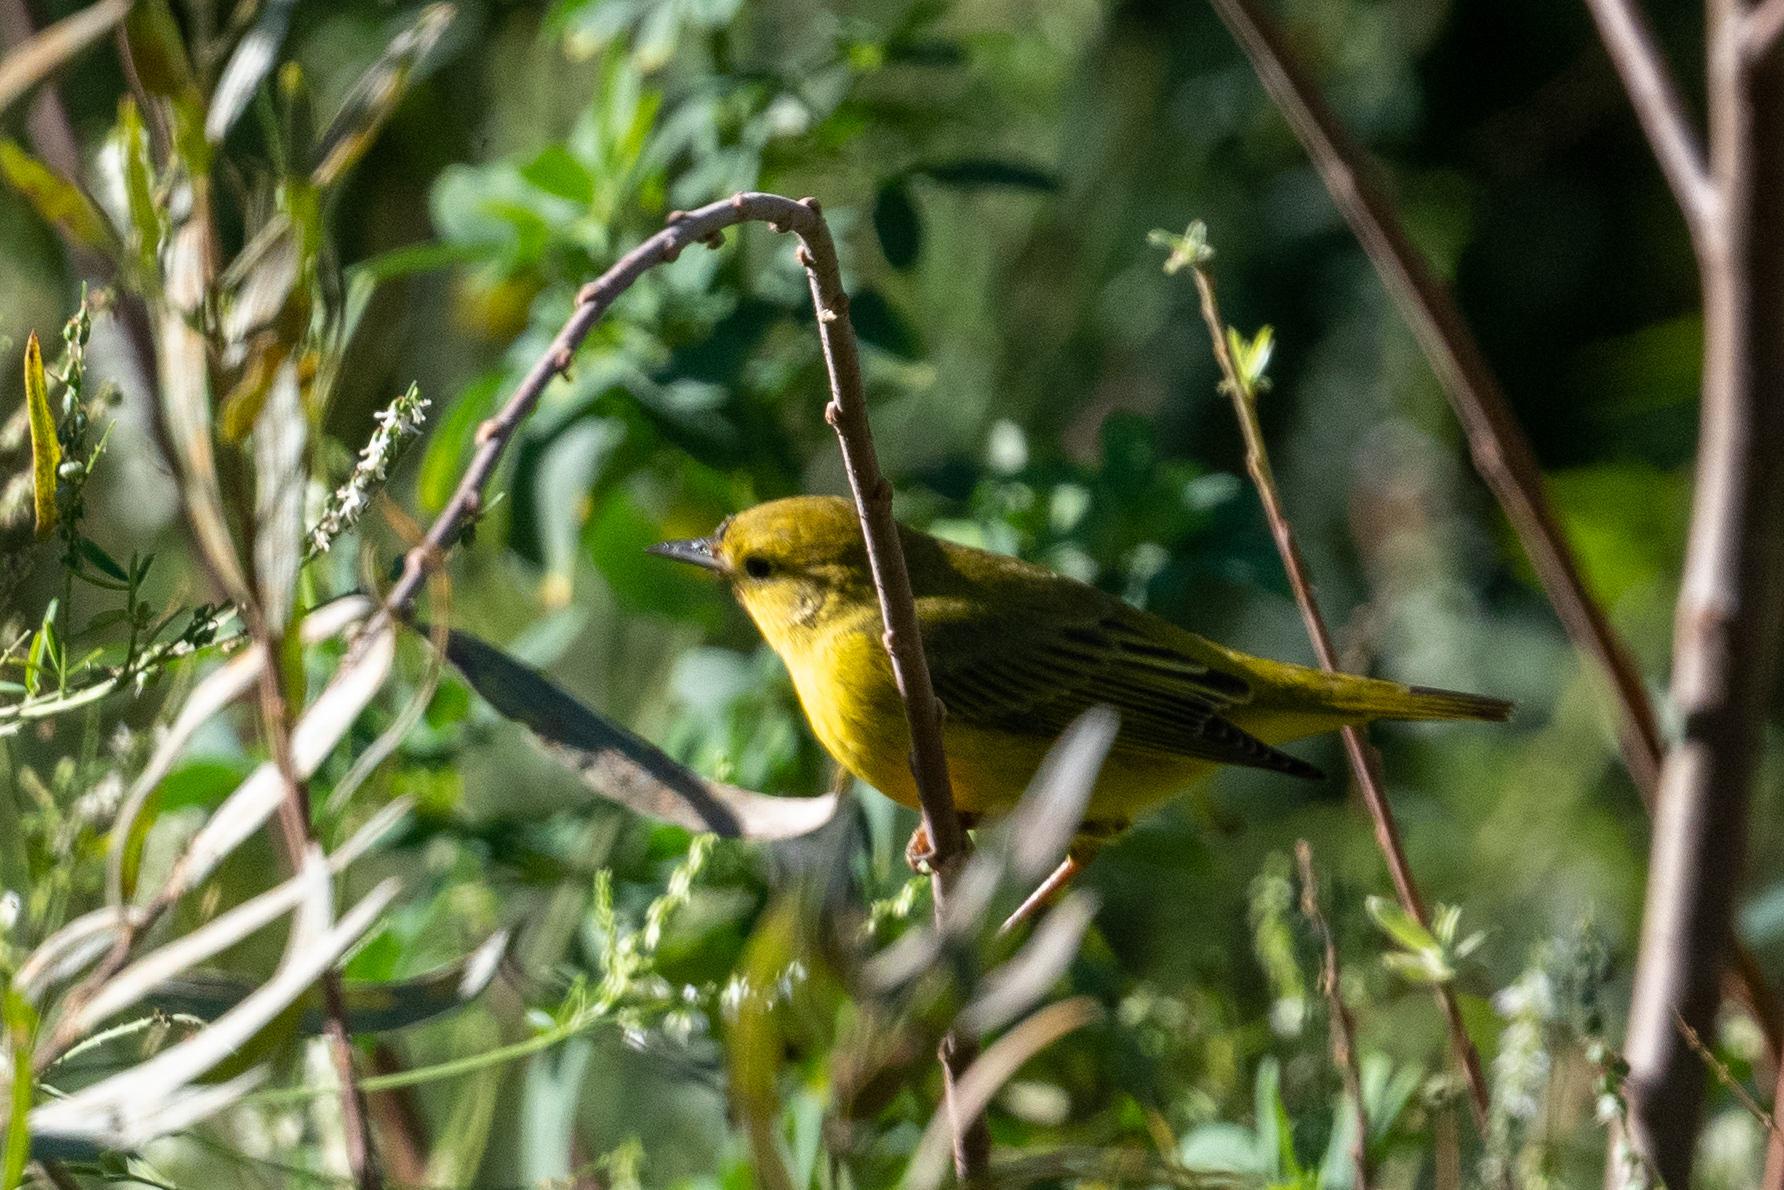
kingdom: Animalia
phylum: Chordata
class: Aves
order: Passeriformes
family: Parulidae
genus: Setophaga
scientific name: Setophaga petechia
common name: Yellow warbler
